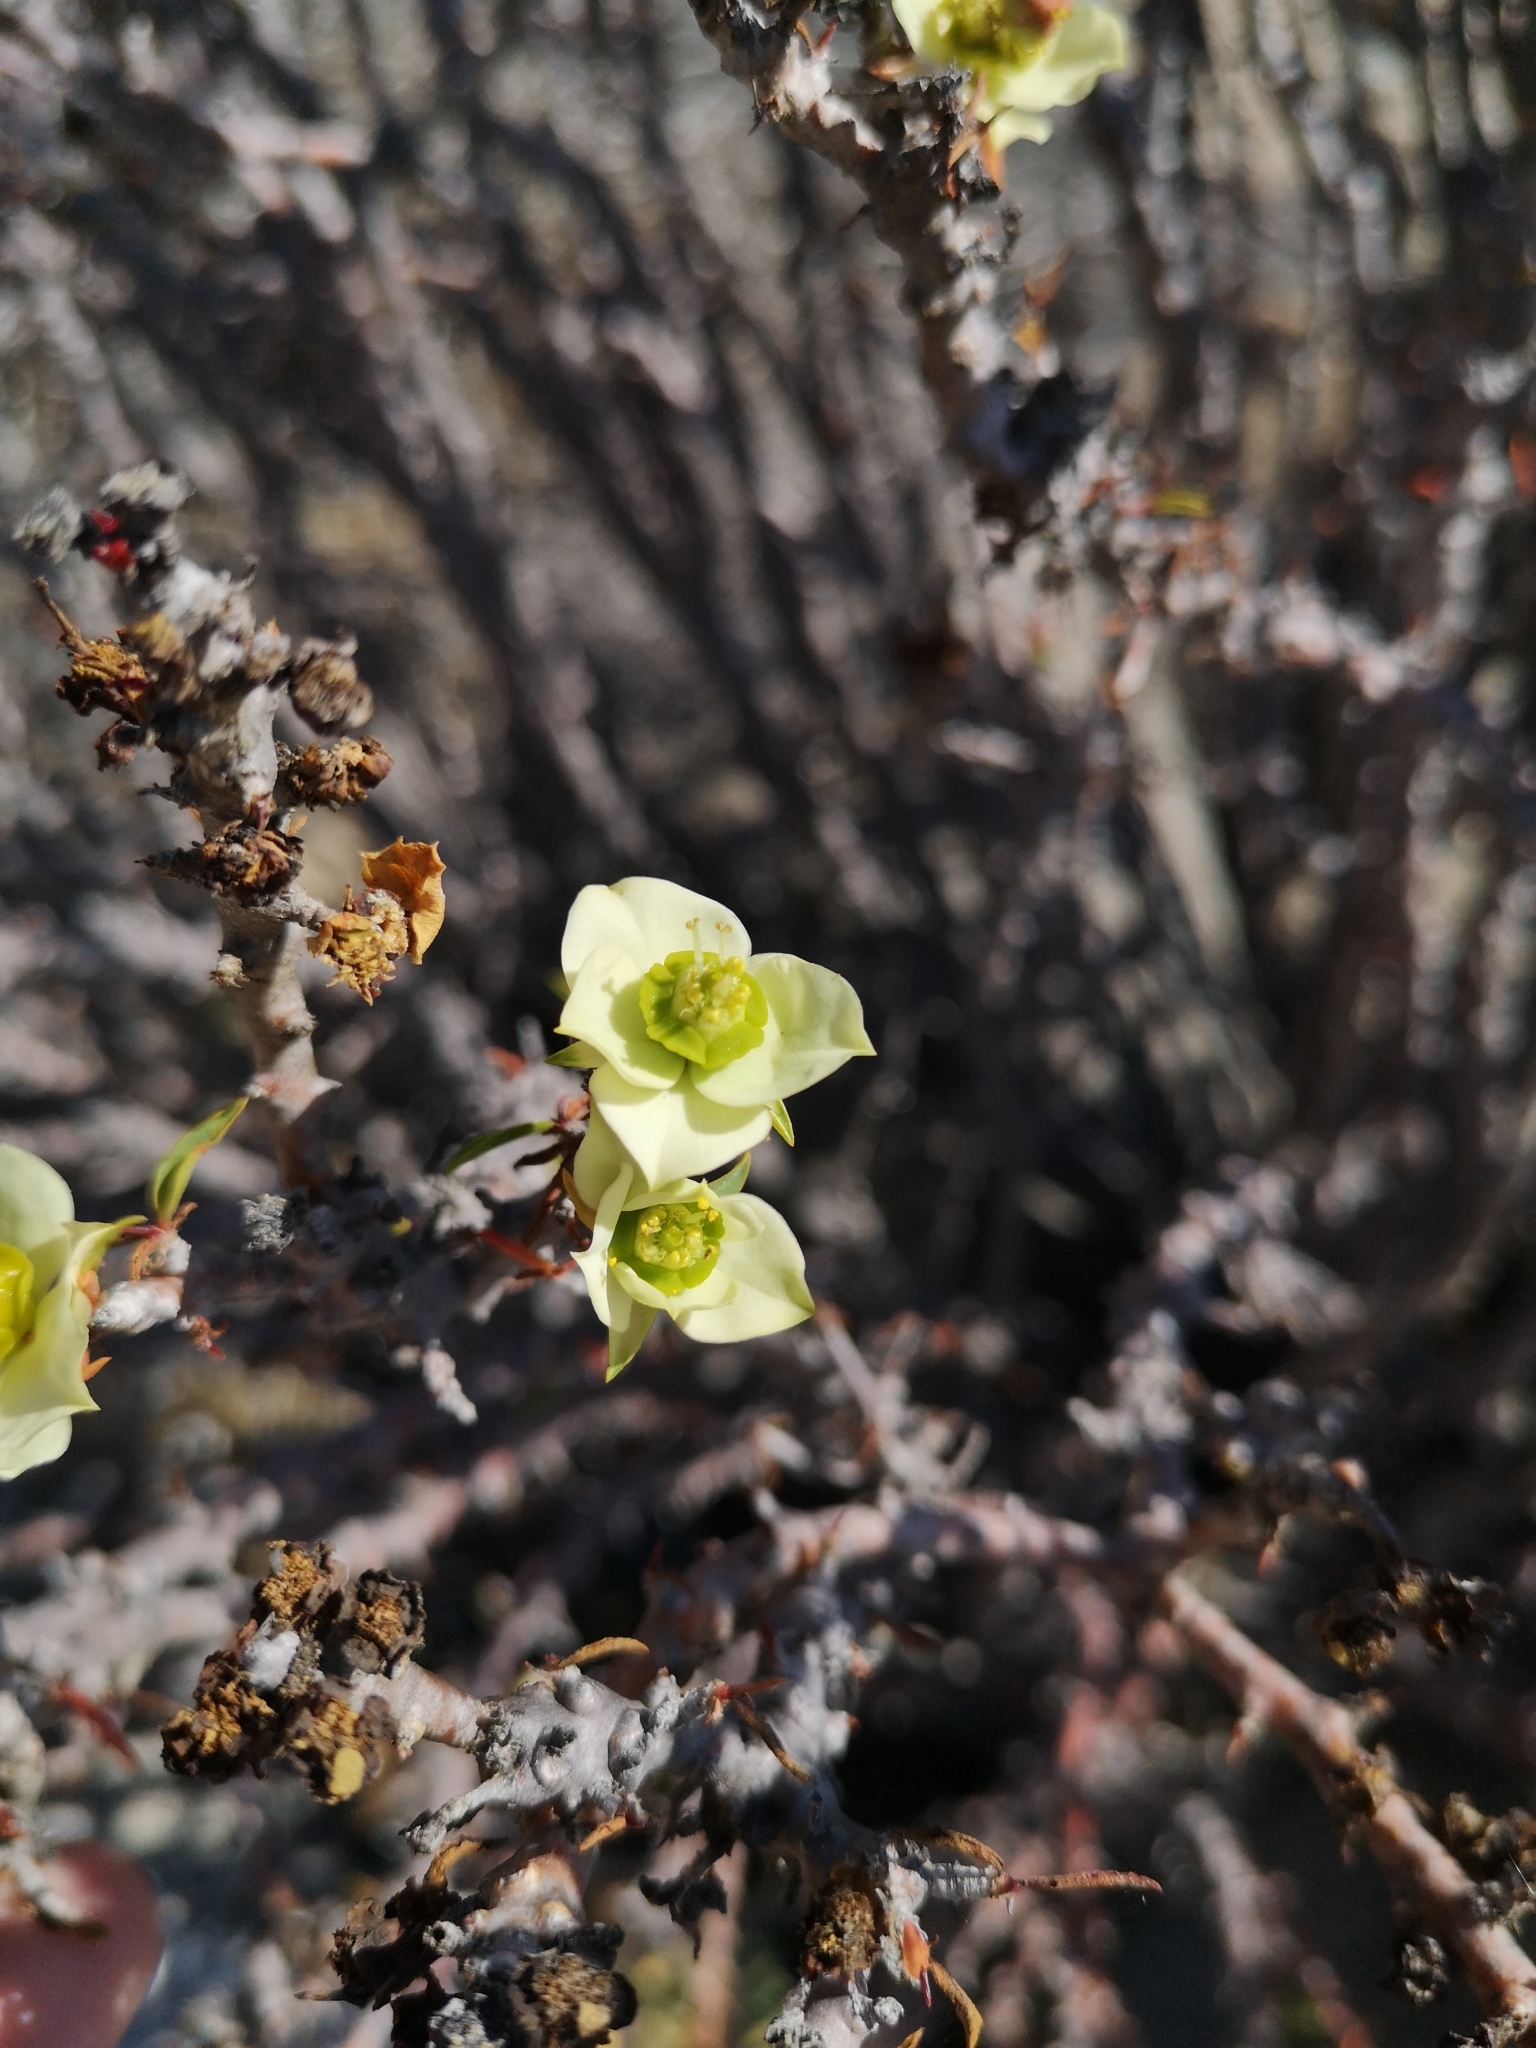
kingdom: Plantae
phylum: Tracheophyta
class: Magnoliopsida
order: Malpighiales
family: Euphorbiaceae
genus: Euphorbia
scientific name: Euphorbia lactiflua
